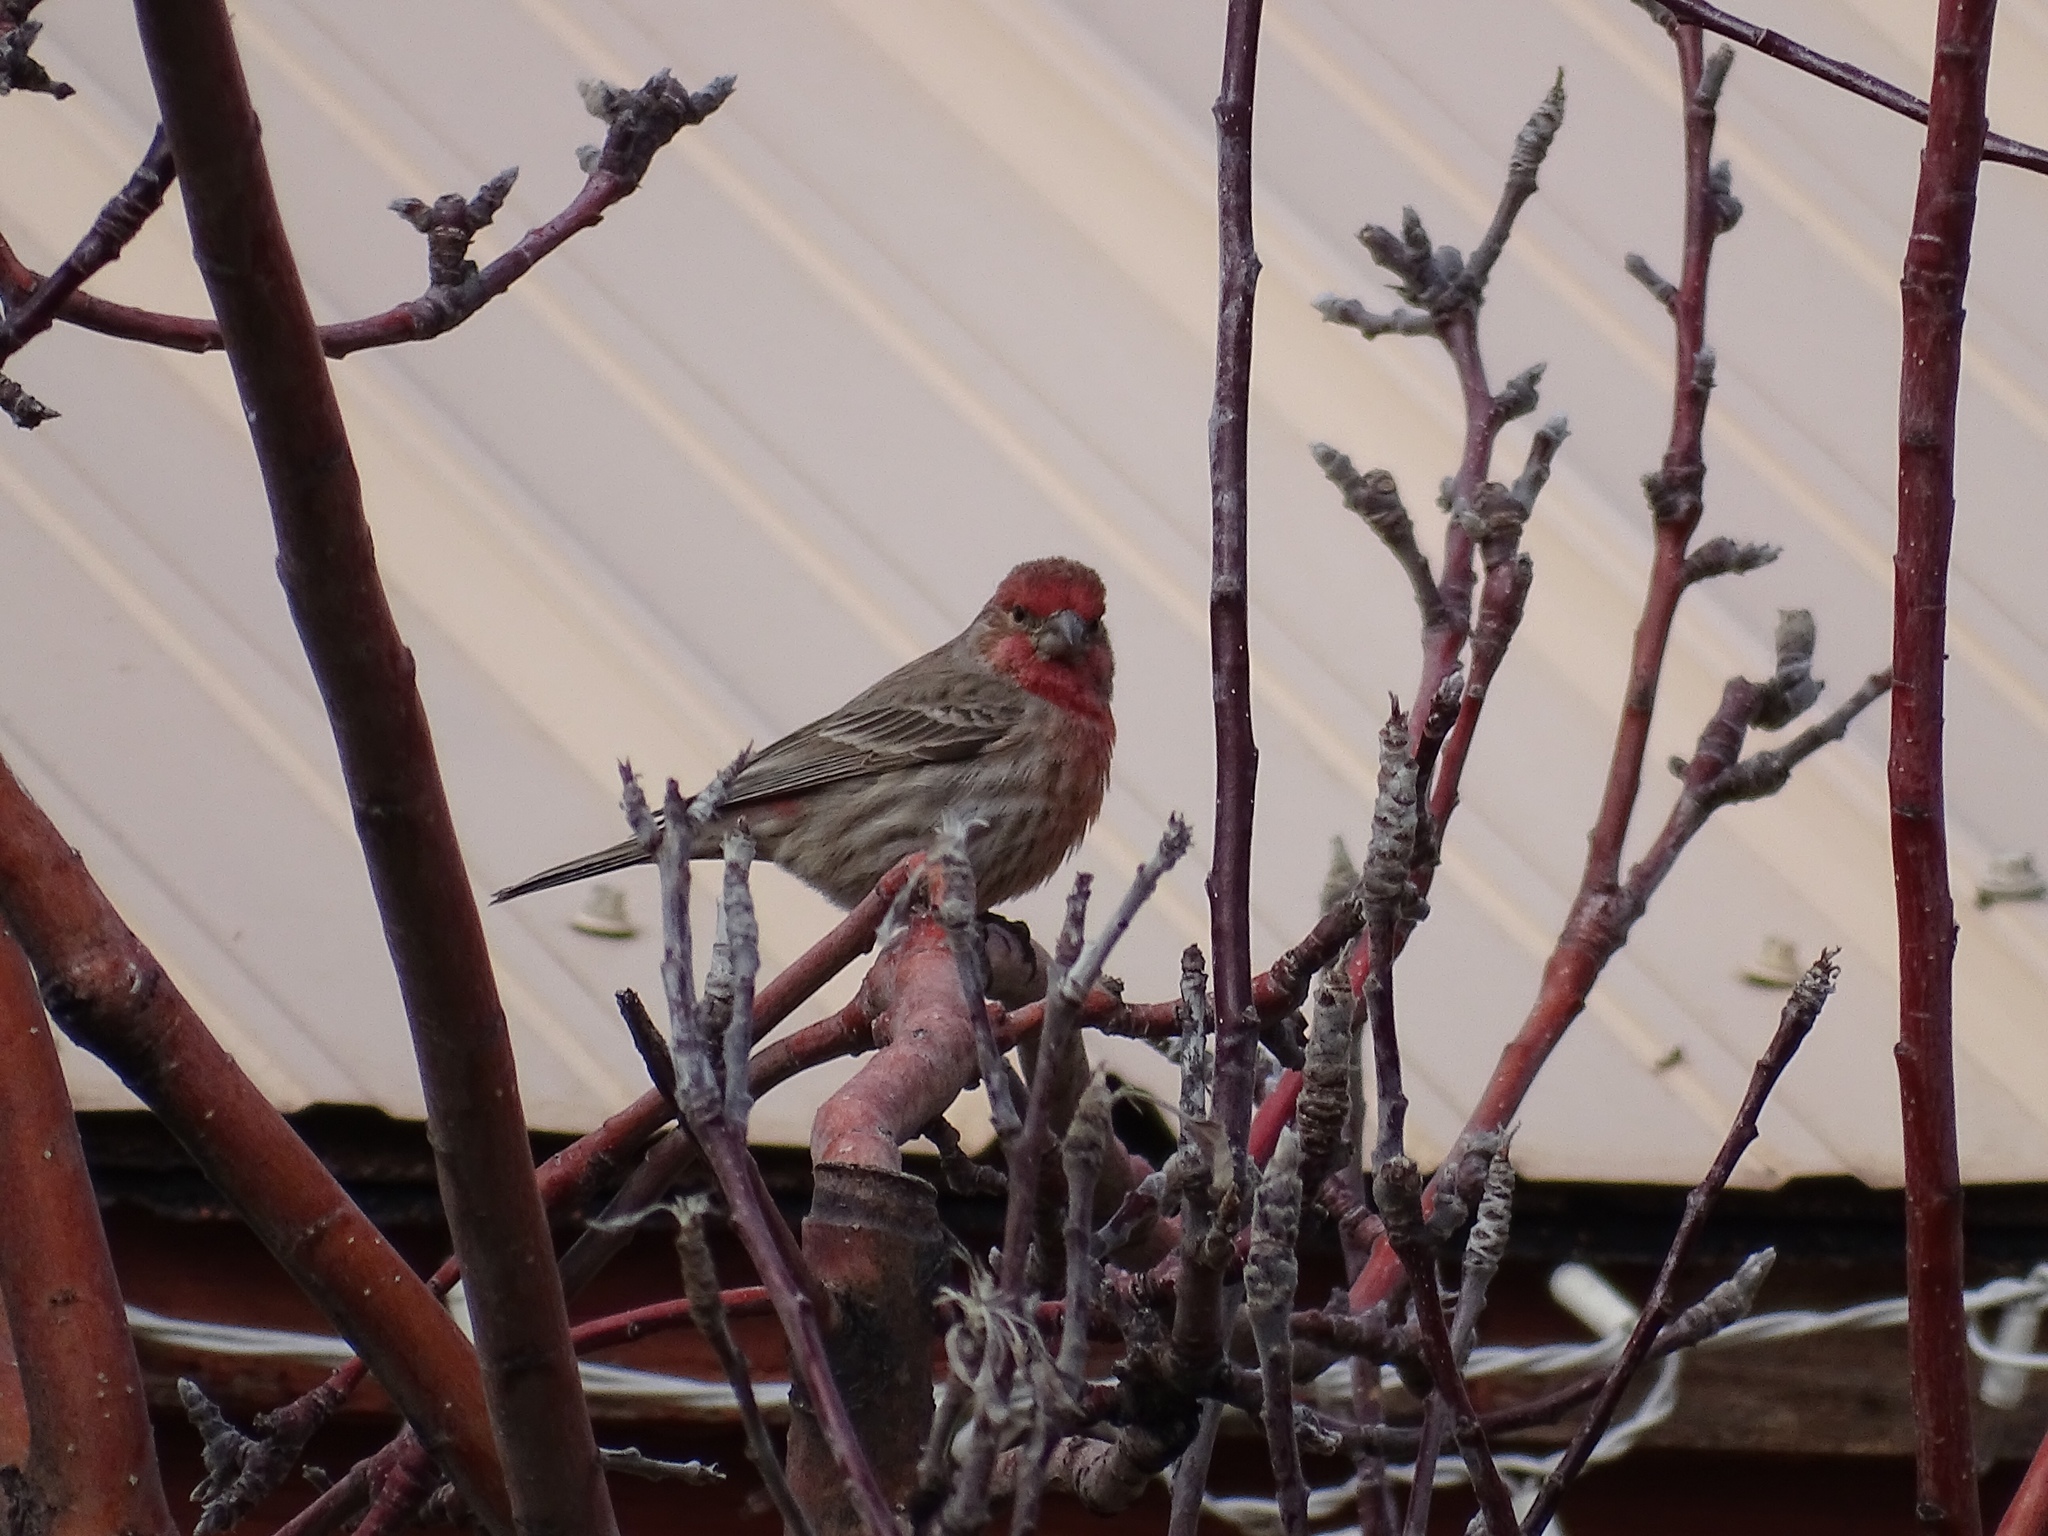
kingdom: Animalia
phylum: Chordata
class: Aves
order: Passeriformes
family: Fringillidae
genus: Haemorhous
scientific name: Haemorhous mexicanus
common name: House finch
